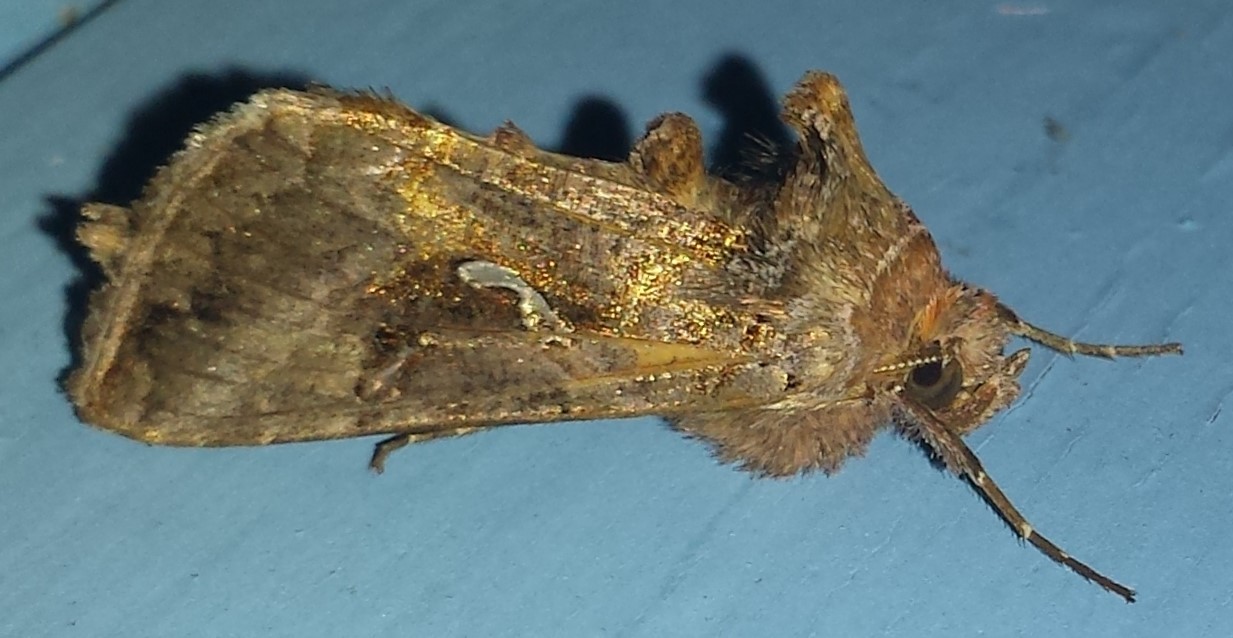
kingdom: Animalia
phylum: Arthropoda
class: Insecta
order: Lepidoptera
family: Noctuidae
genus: Autographa
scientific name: Autographa precationis
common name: Common looper moth
